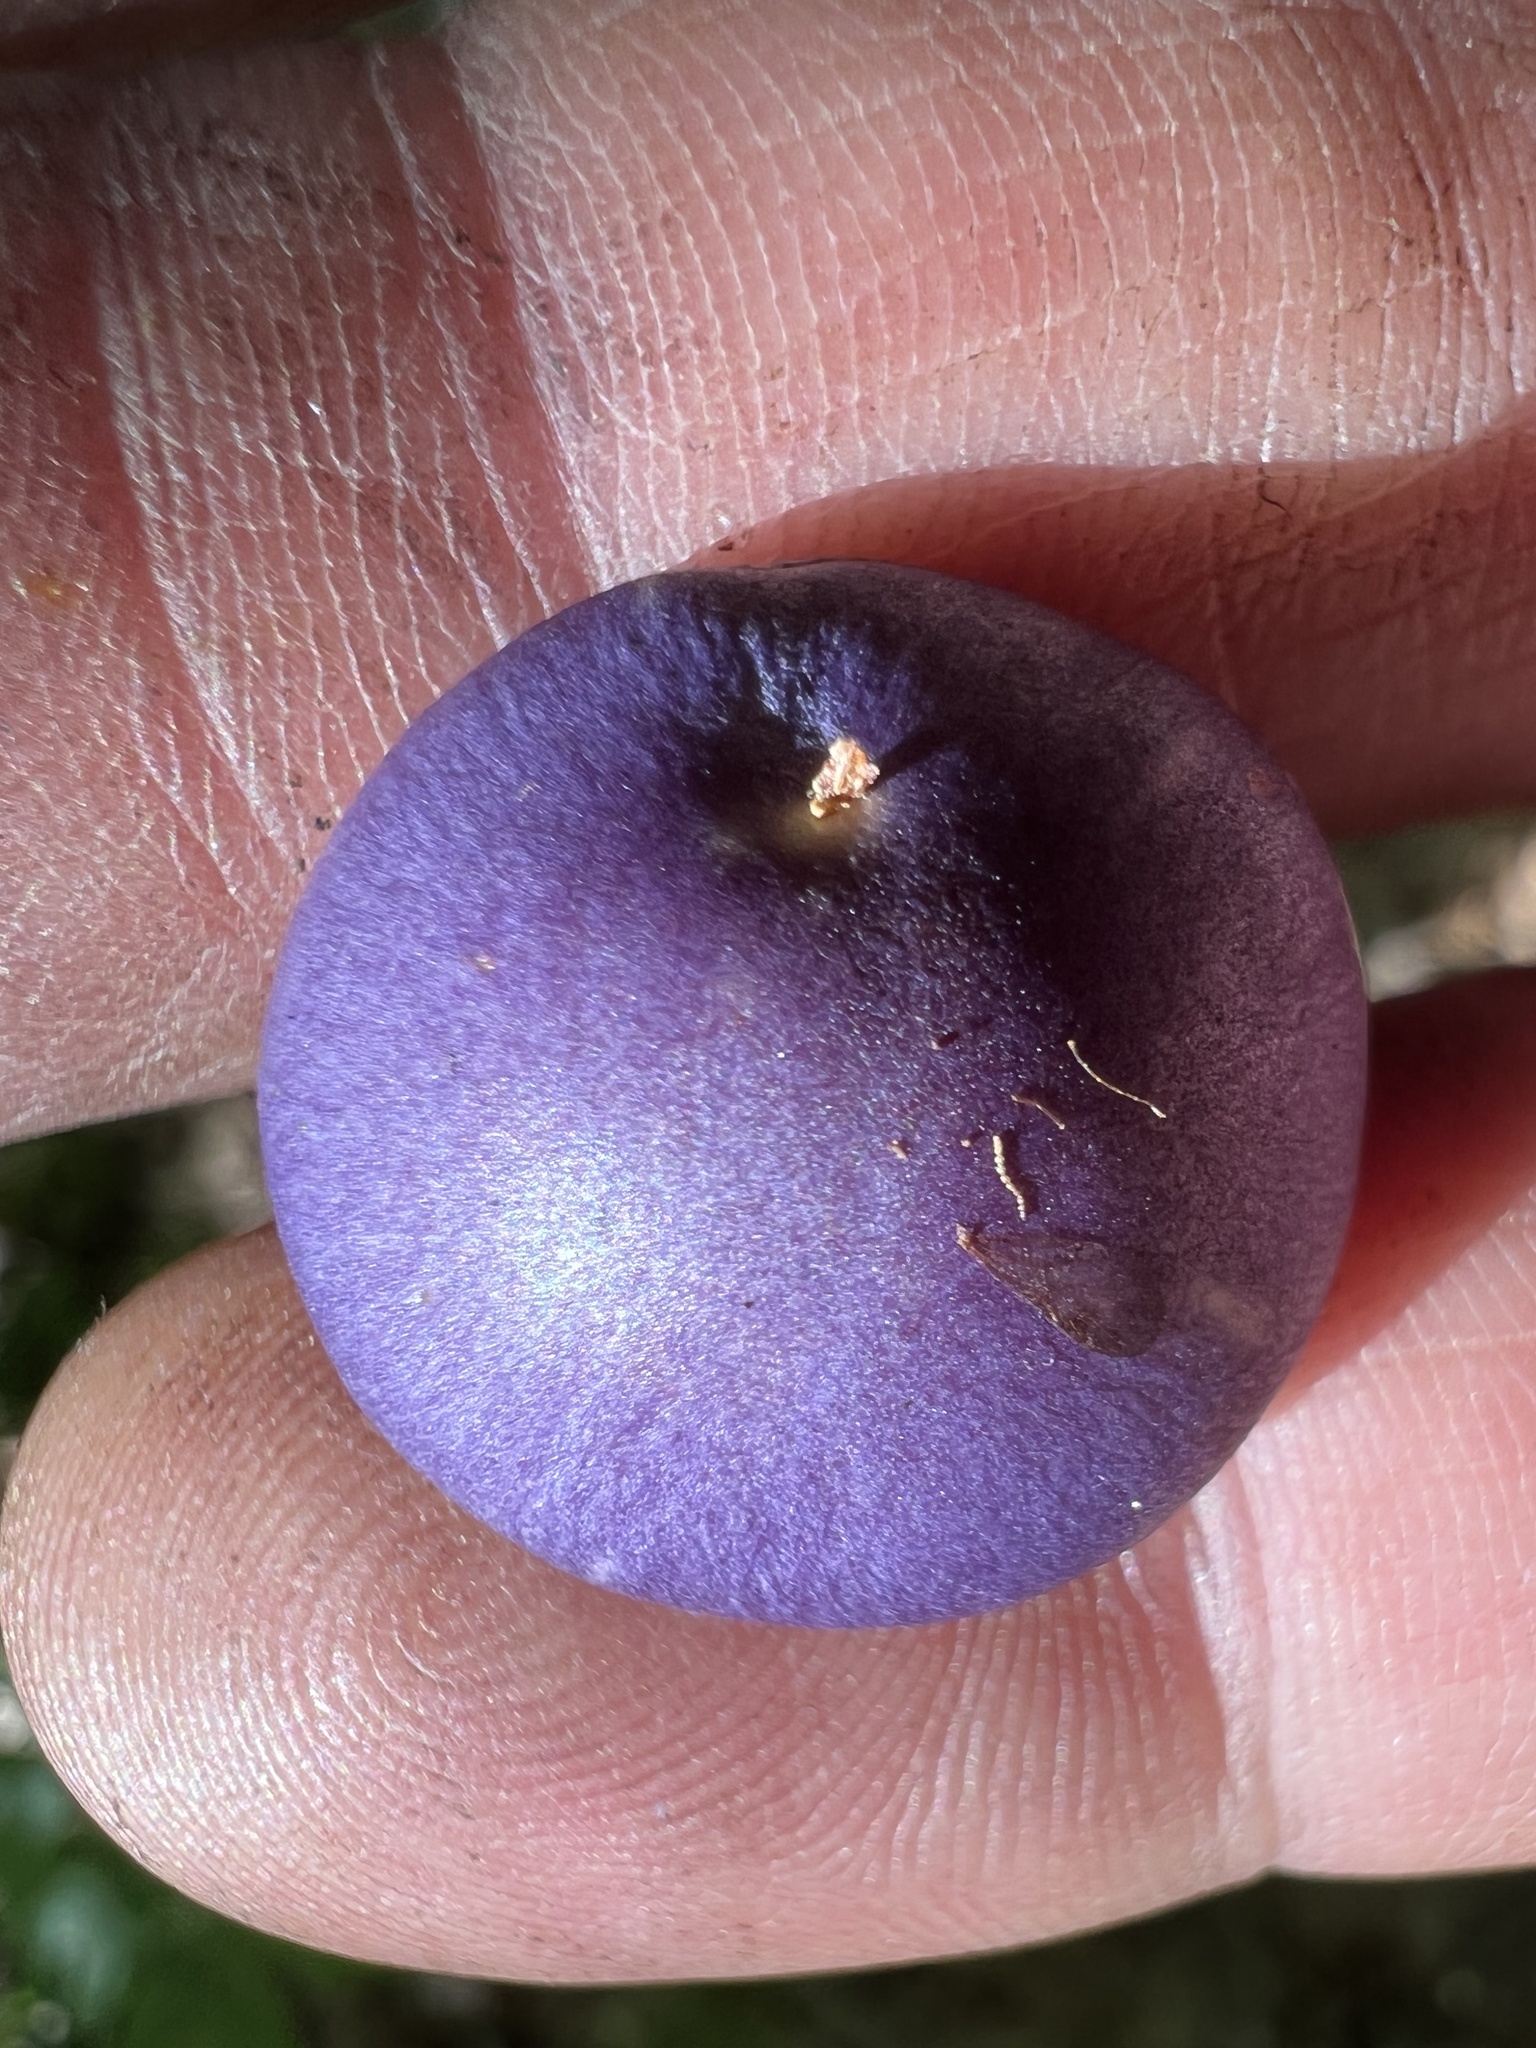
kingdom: Fungi
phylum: Basidiomycota
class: Agaricomycetes
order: Agaricales
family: Cortinariaceae
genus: Cortinarius
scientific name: Cortinarius iodes
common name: Viscid violet cort
